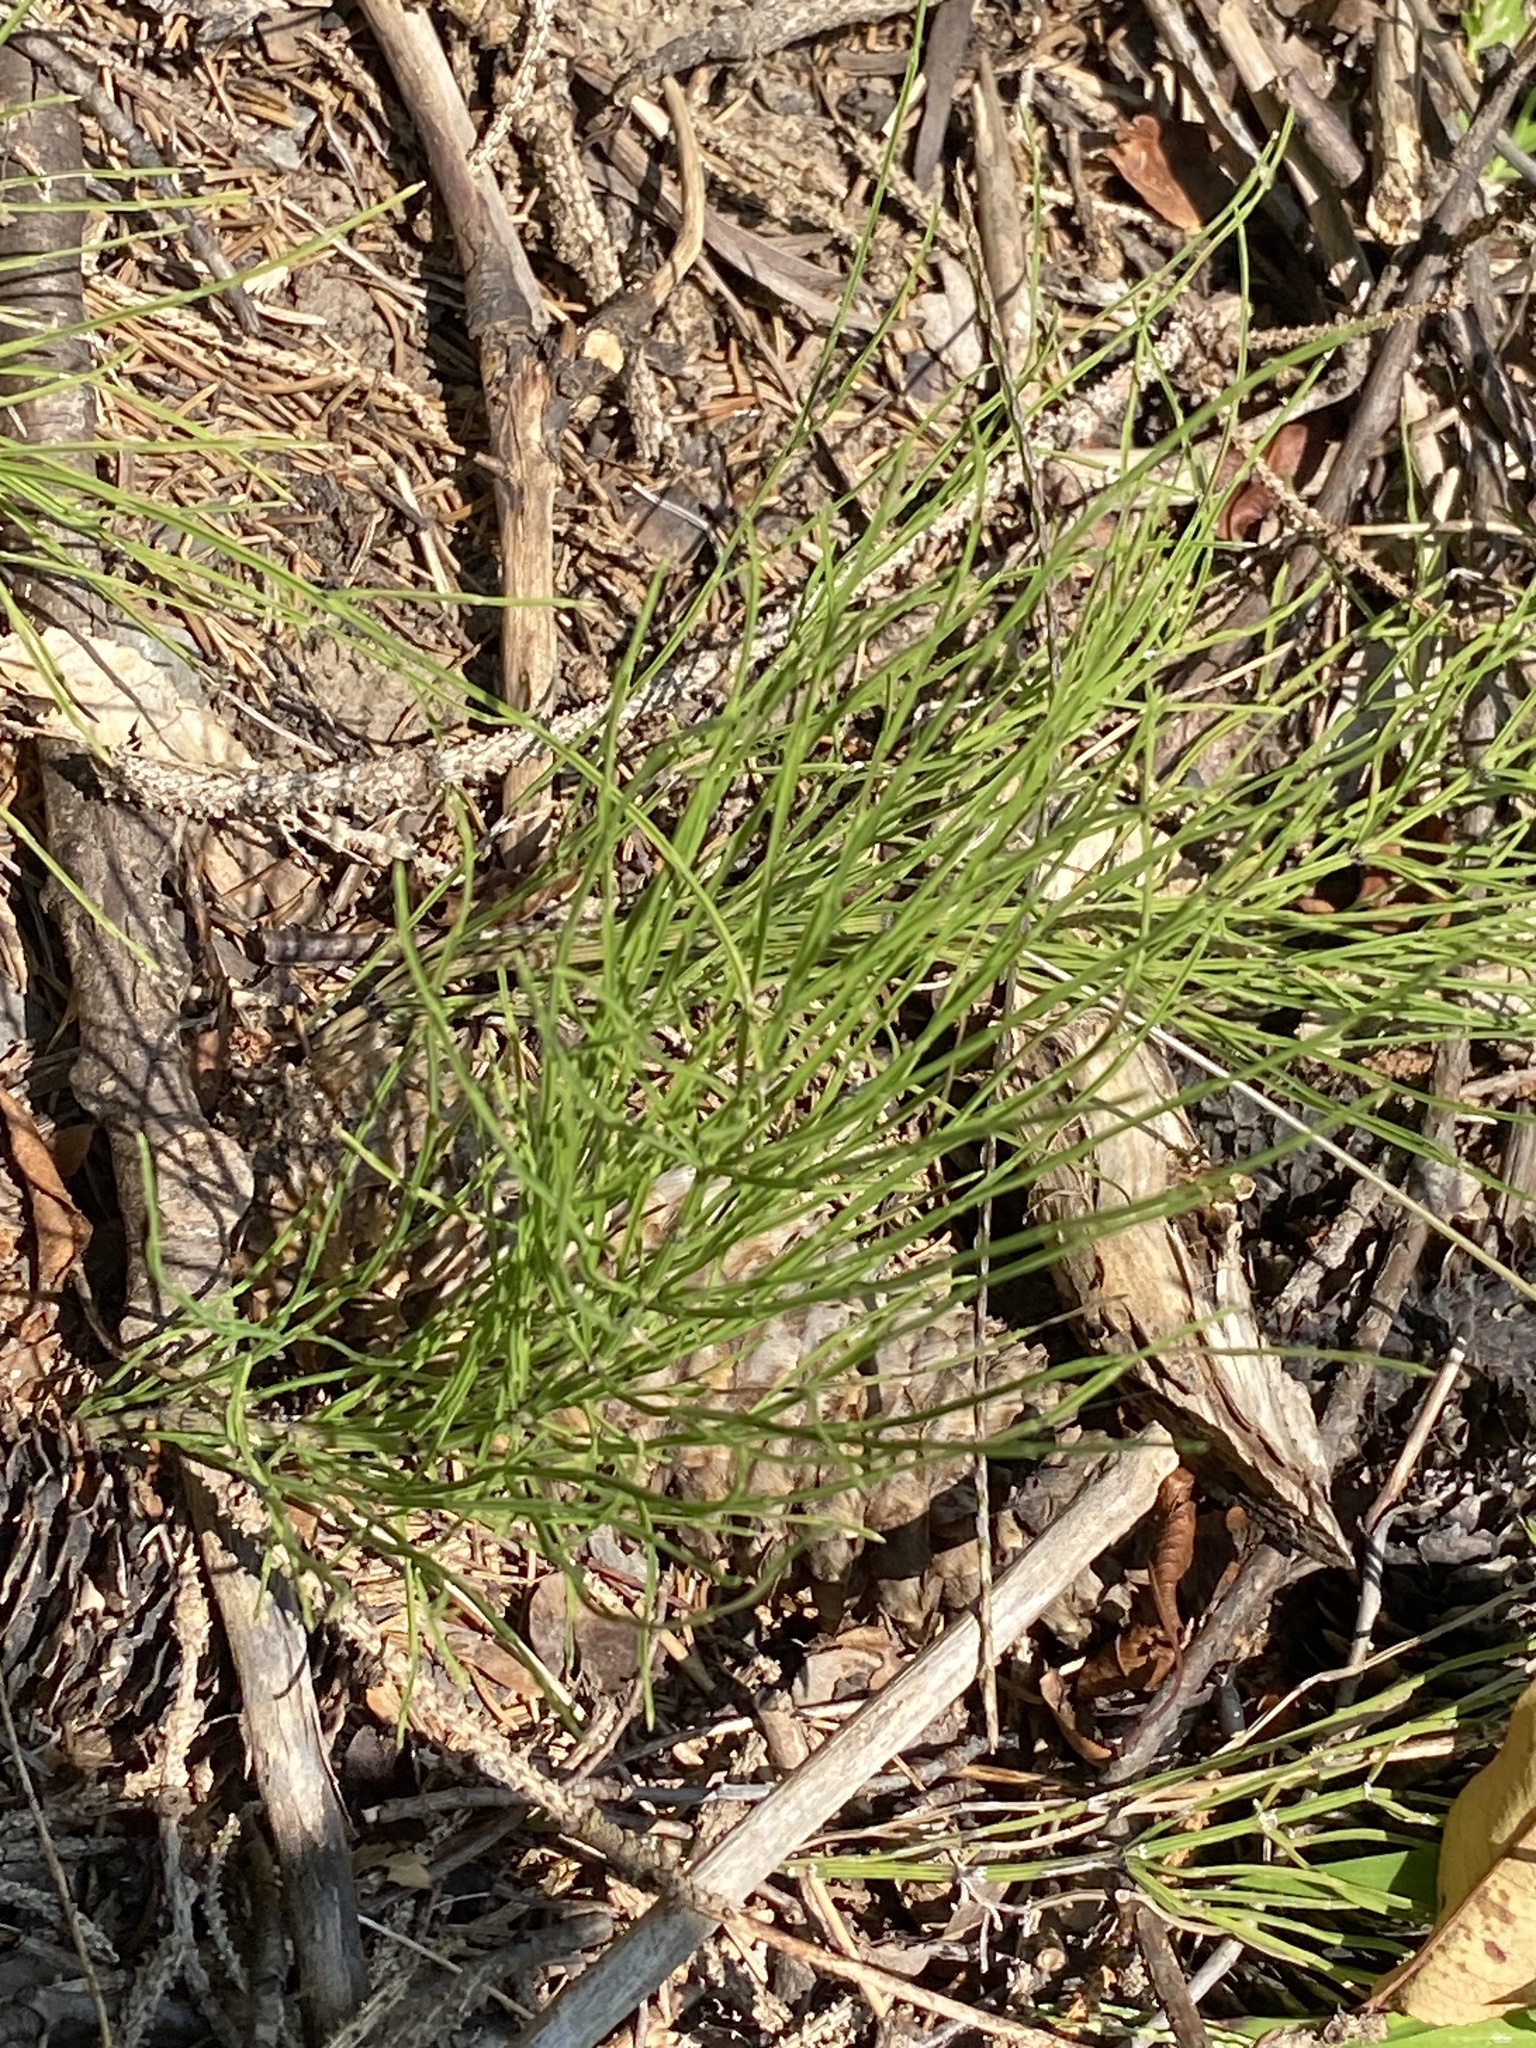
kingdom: Plantae
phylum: Tracheophyta
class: Polypodiopsida
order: Equisetales
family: Equisetaceae
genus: Equisetum
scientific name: Equisetum arvense
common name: Field horsetail
